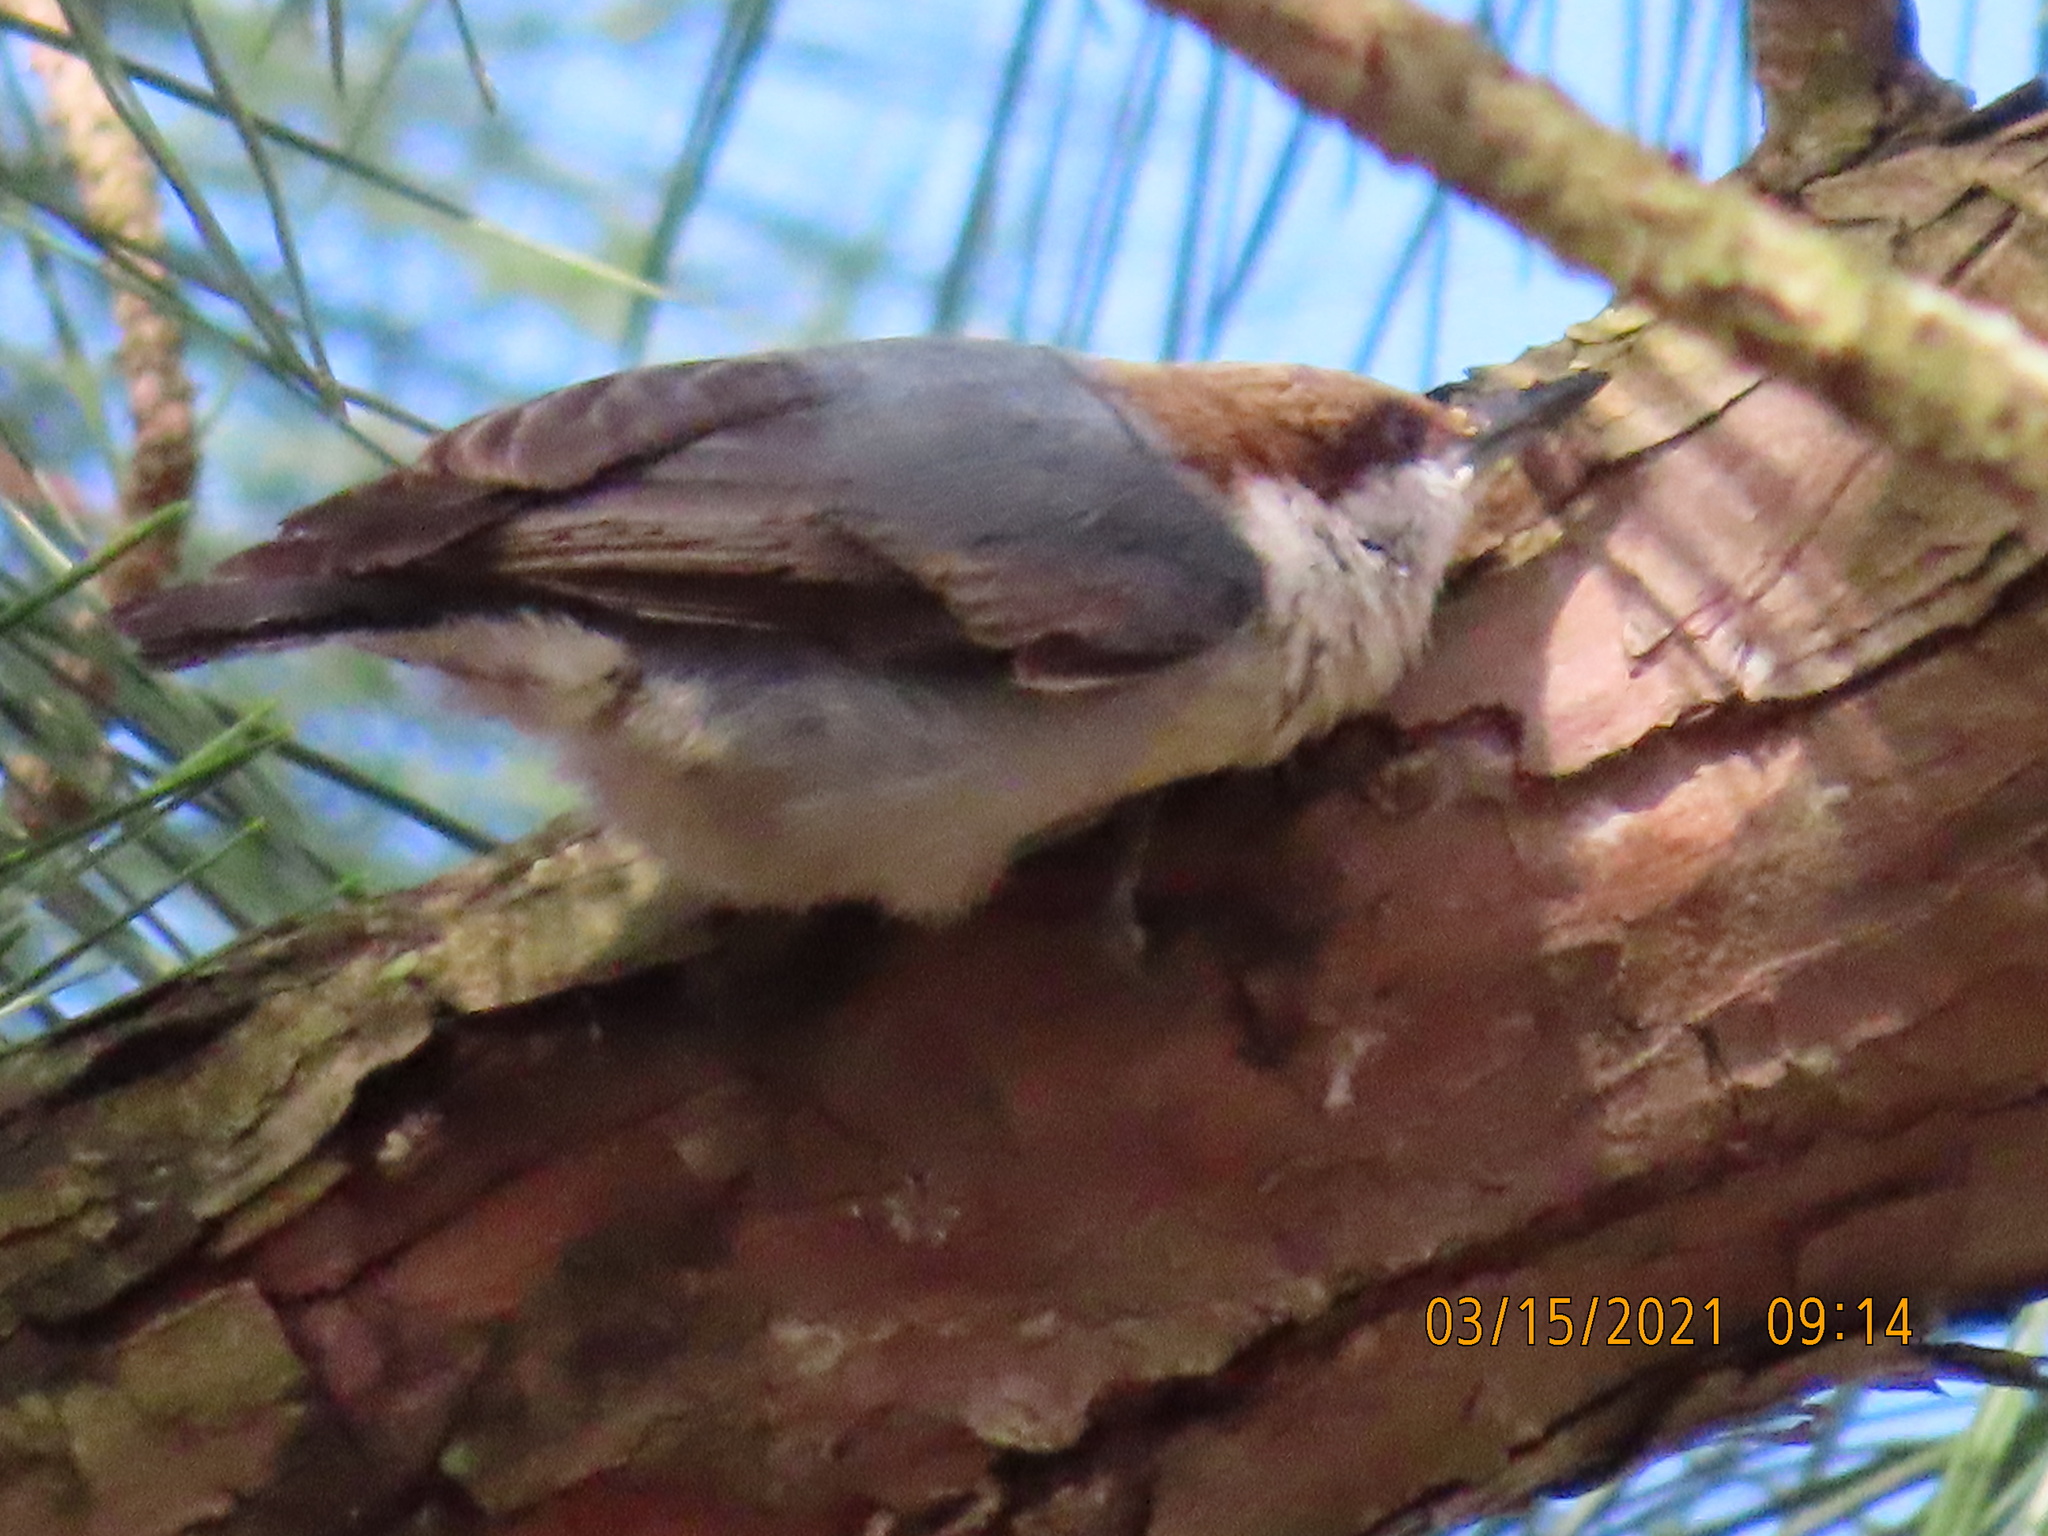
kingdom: Animalia
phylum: Chordata
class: Aves
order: Passeriformes
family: Sittidae
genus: Sitta
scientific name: Sitta pusilla
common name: Brown-headed nuthatch
